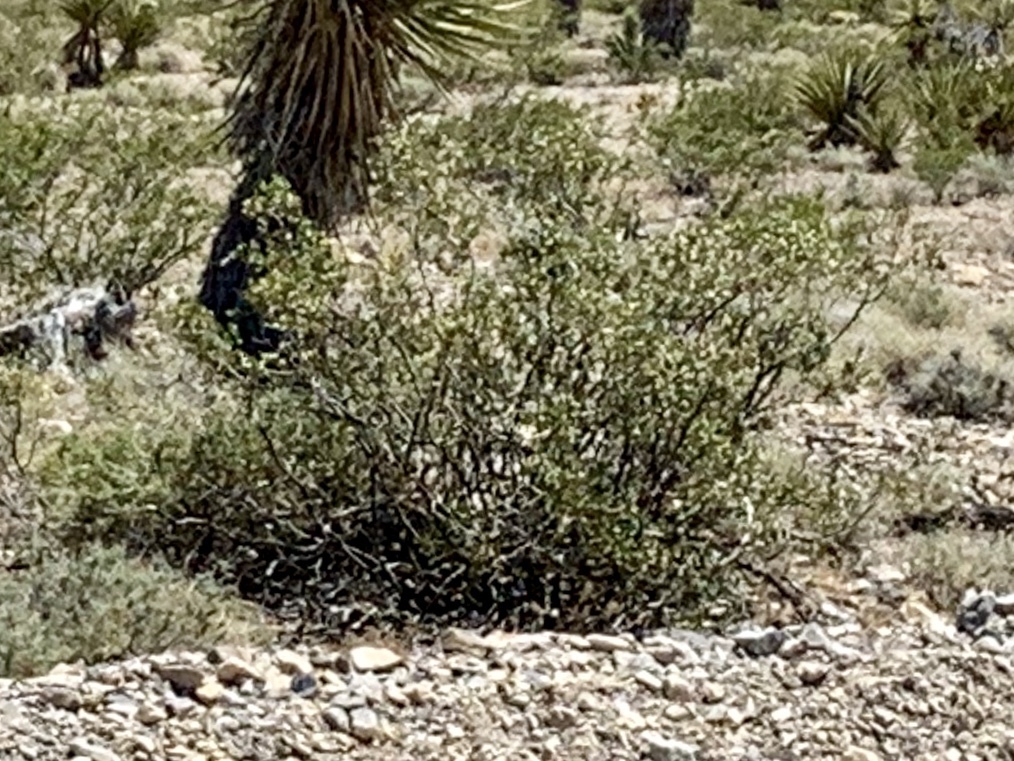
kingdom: Plantae
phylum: Tracheophyta
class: Magnoliopsida
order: Zygophyllales
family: Zygophyllaceae
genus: Larrea
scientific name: Larrea tridentata
